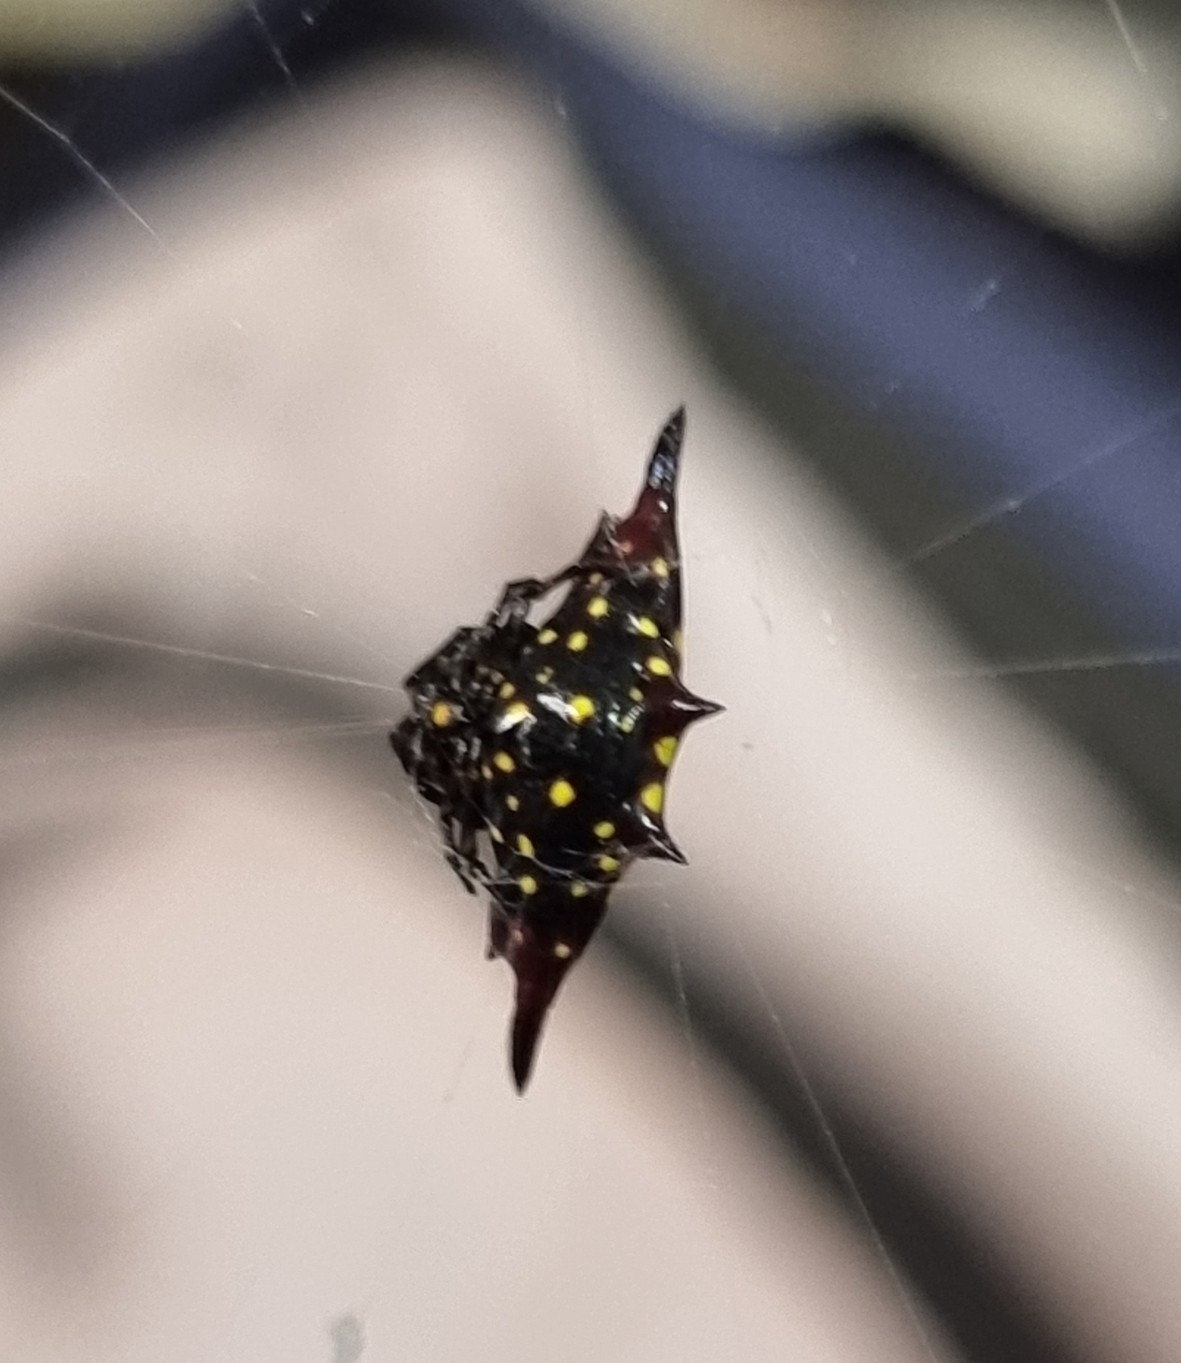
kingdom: Animalia
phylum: Arthropoda
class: Arachnida
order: Araneae
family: Araneidae
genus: Gasteracantha
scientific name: Gasteracantha fornicata
